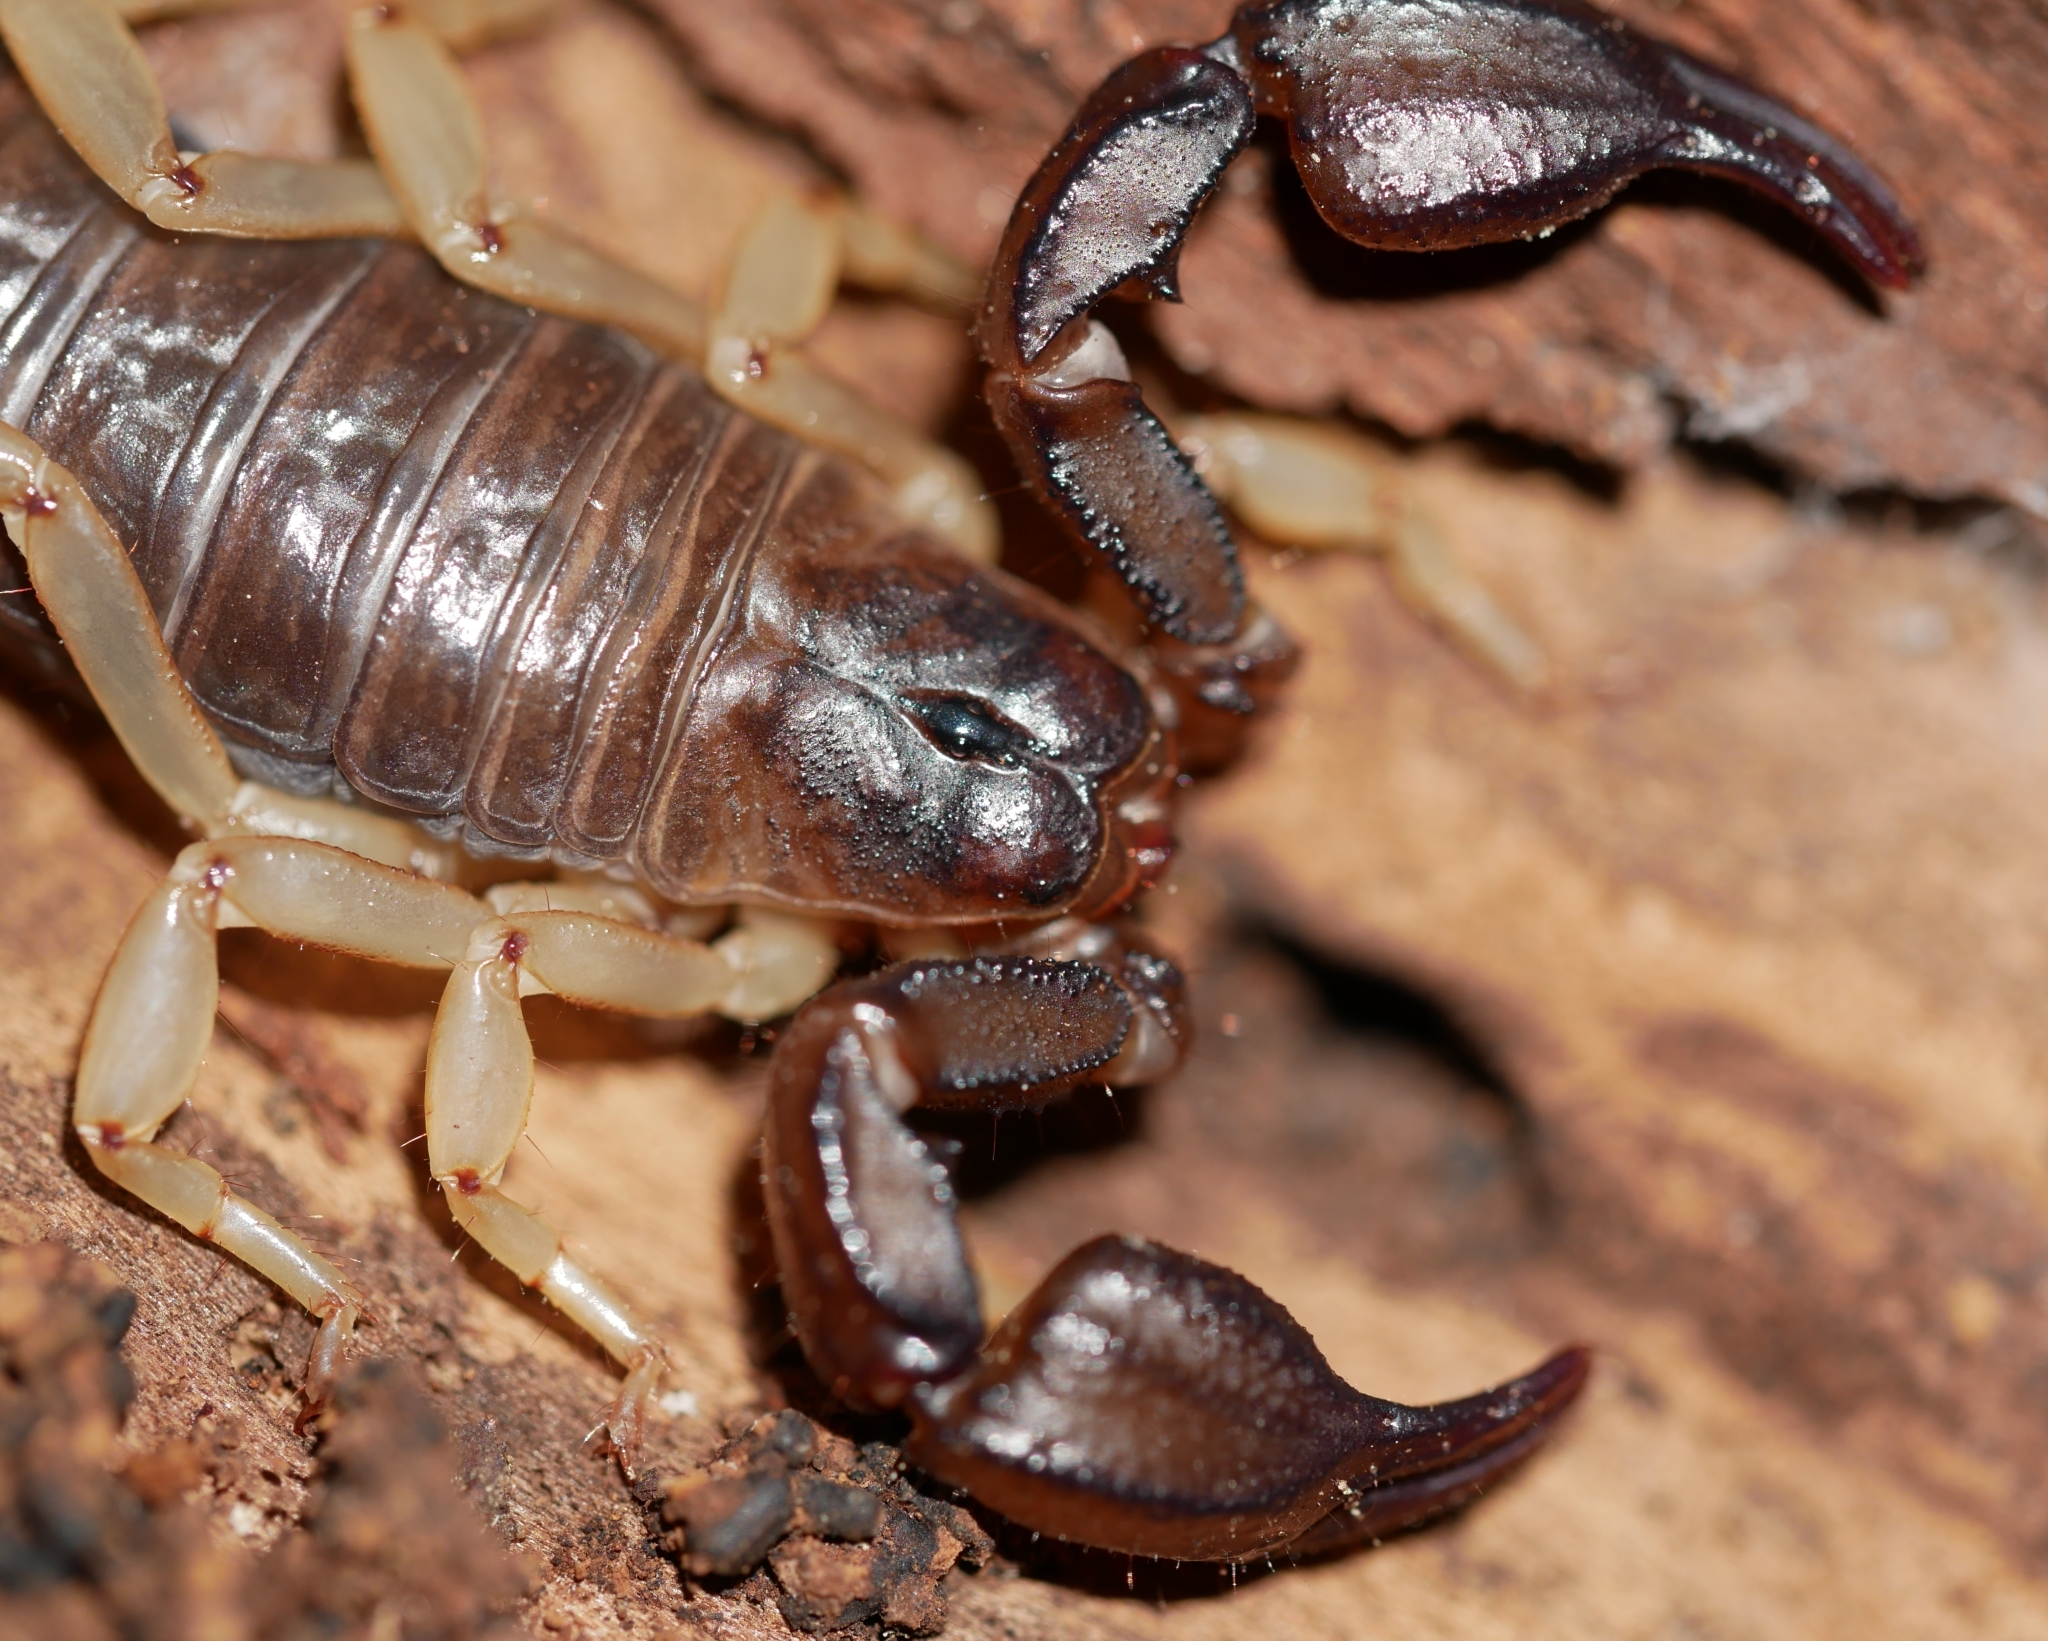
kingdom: Animalia
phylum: Arthropoda
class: Arachnida
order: Scorpiones
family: Chactidae
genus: Uroctonus
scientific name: Uroctonus mordax
